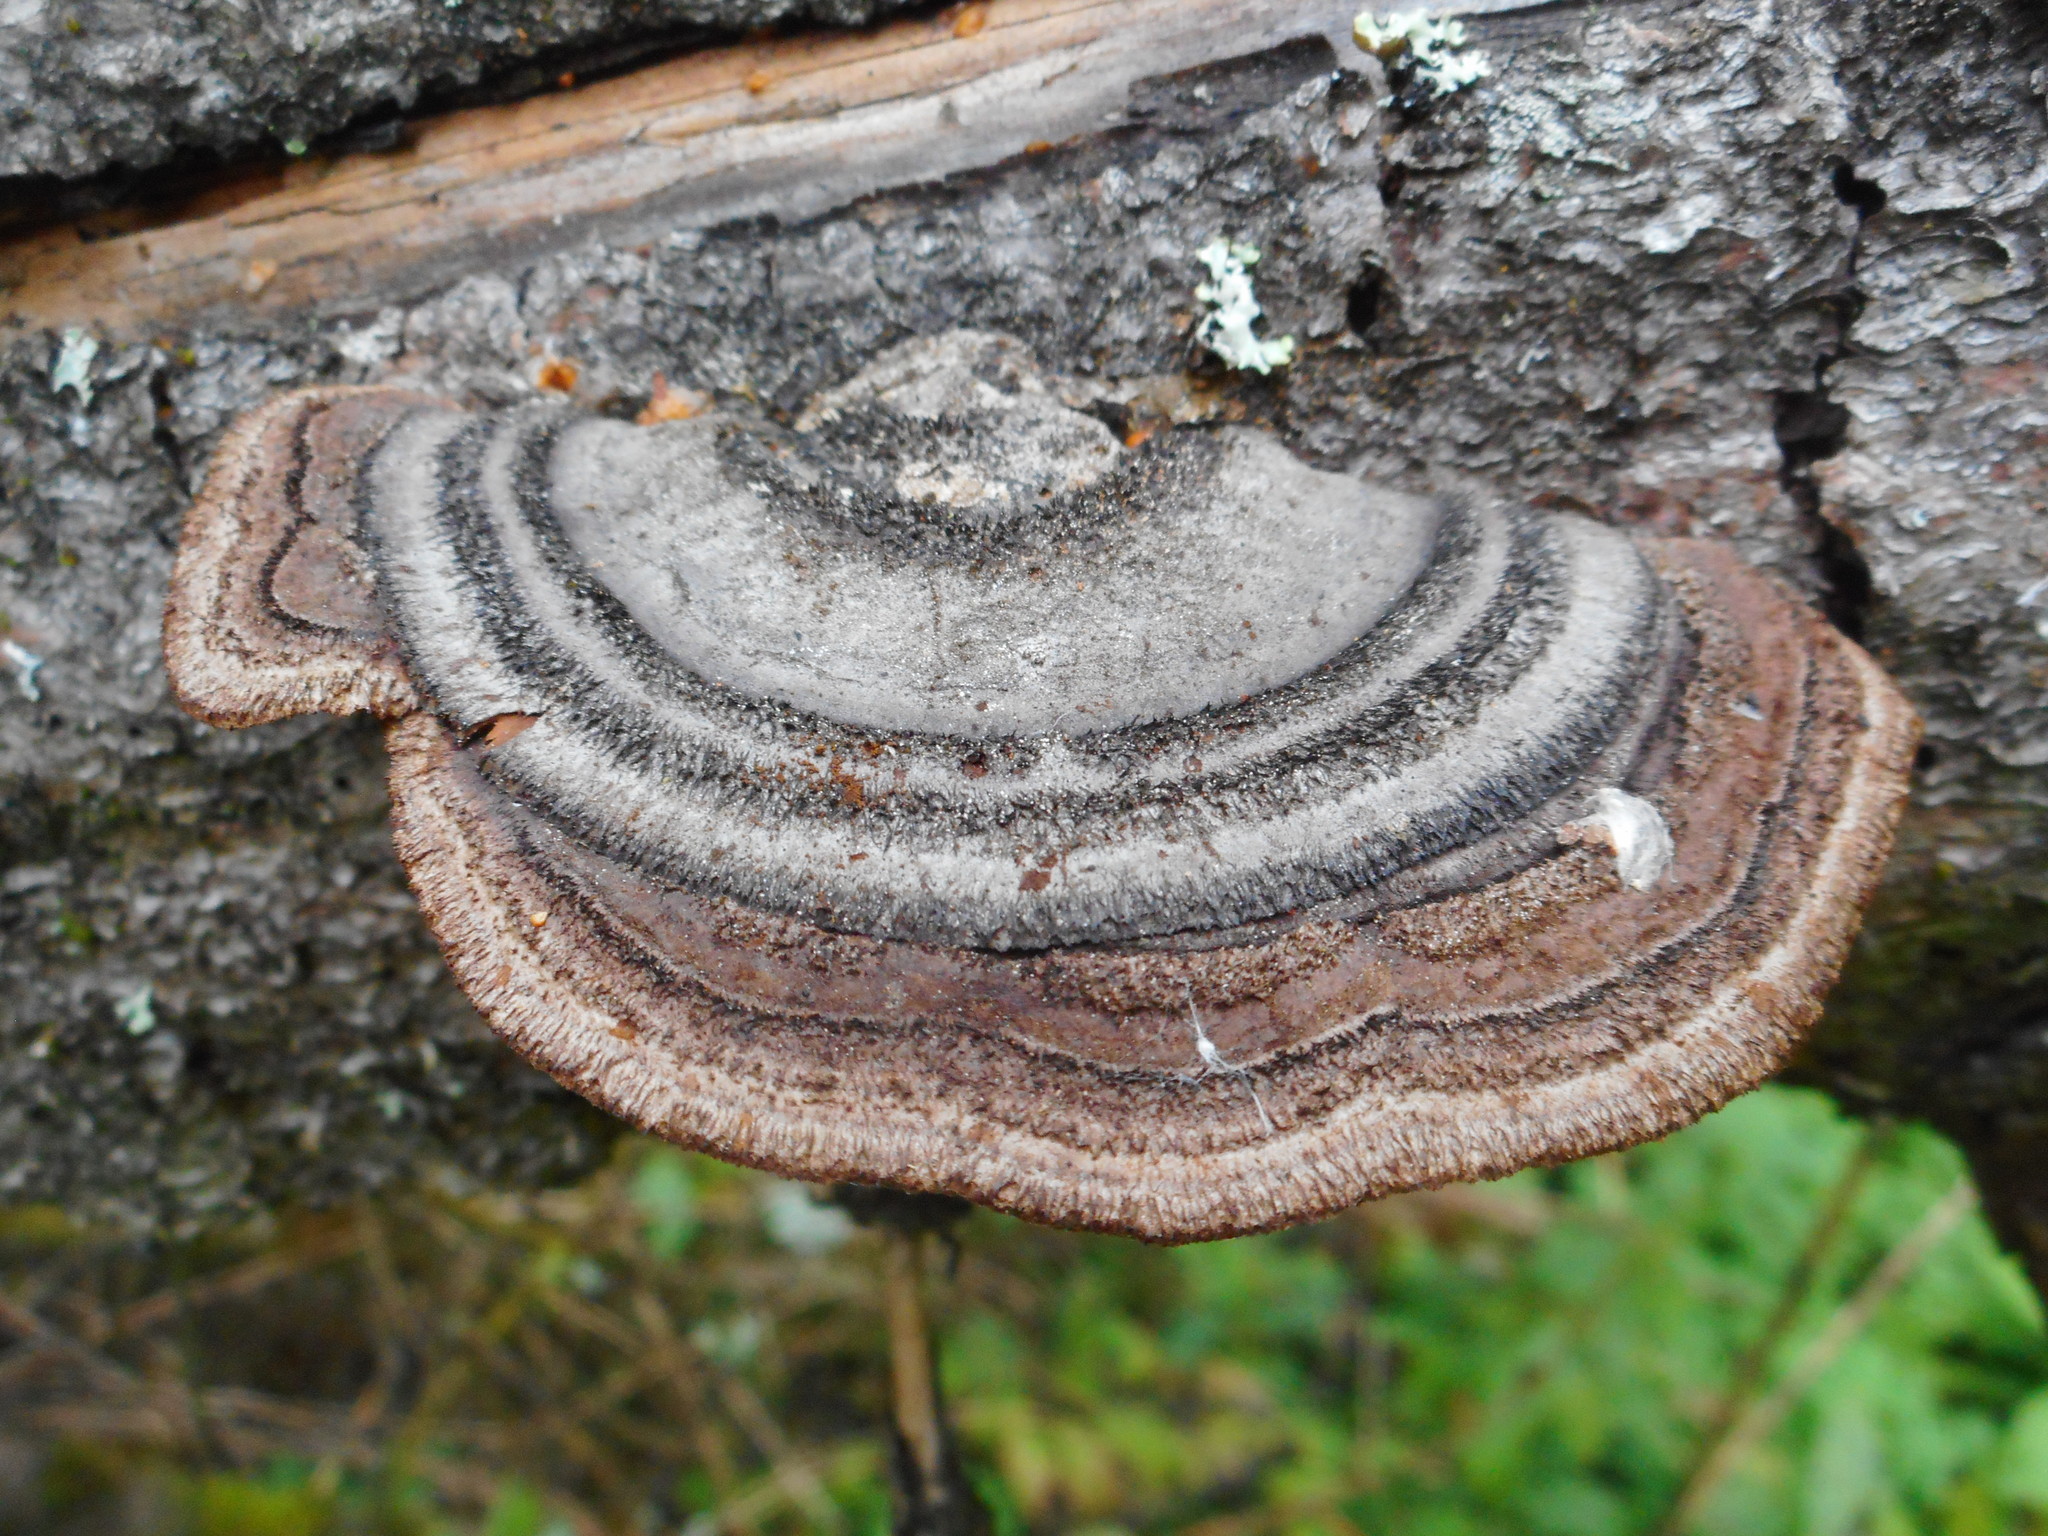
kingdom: Fungi
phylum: Basidiomycota
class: Agaricomycetes
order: Gloeophyllales
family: Gloeophyllaceae
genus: Gloeophyllum
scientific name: Gloeophyllum sepiarium
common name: Conifer mazegill
